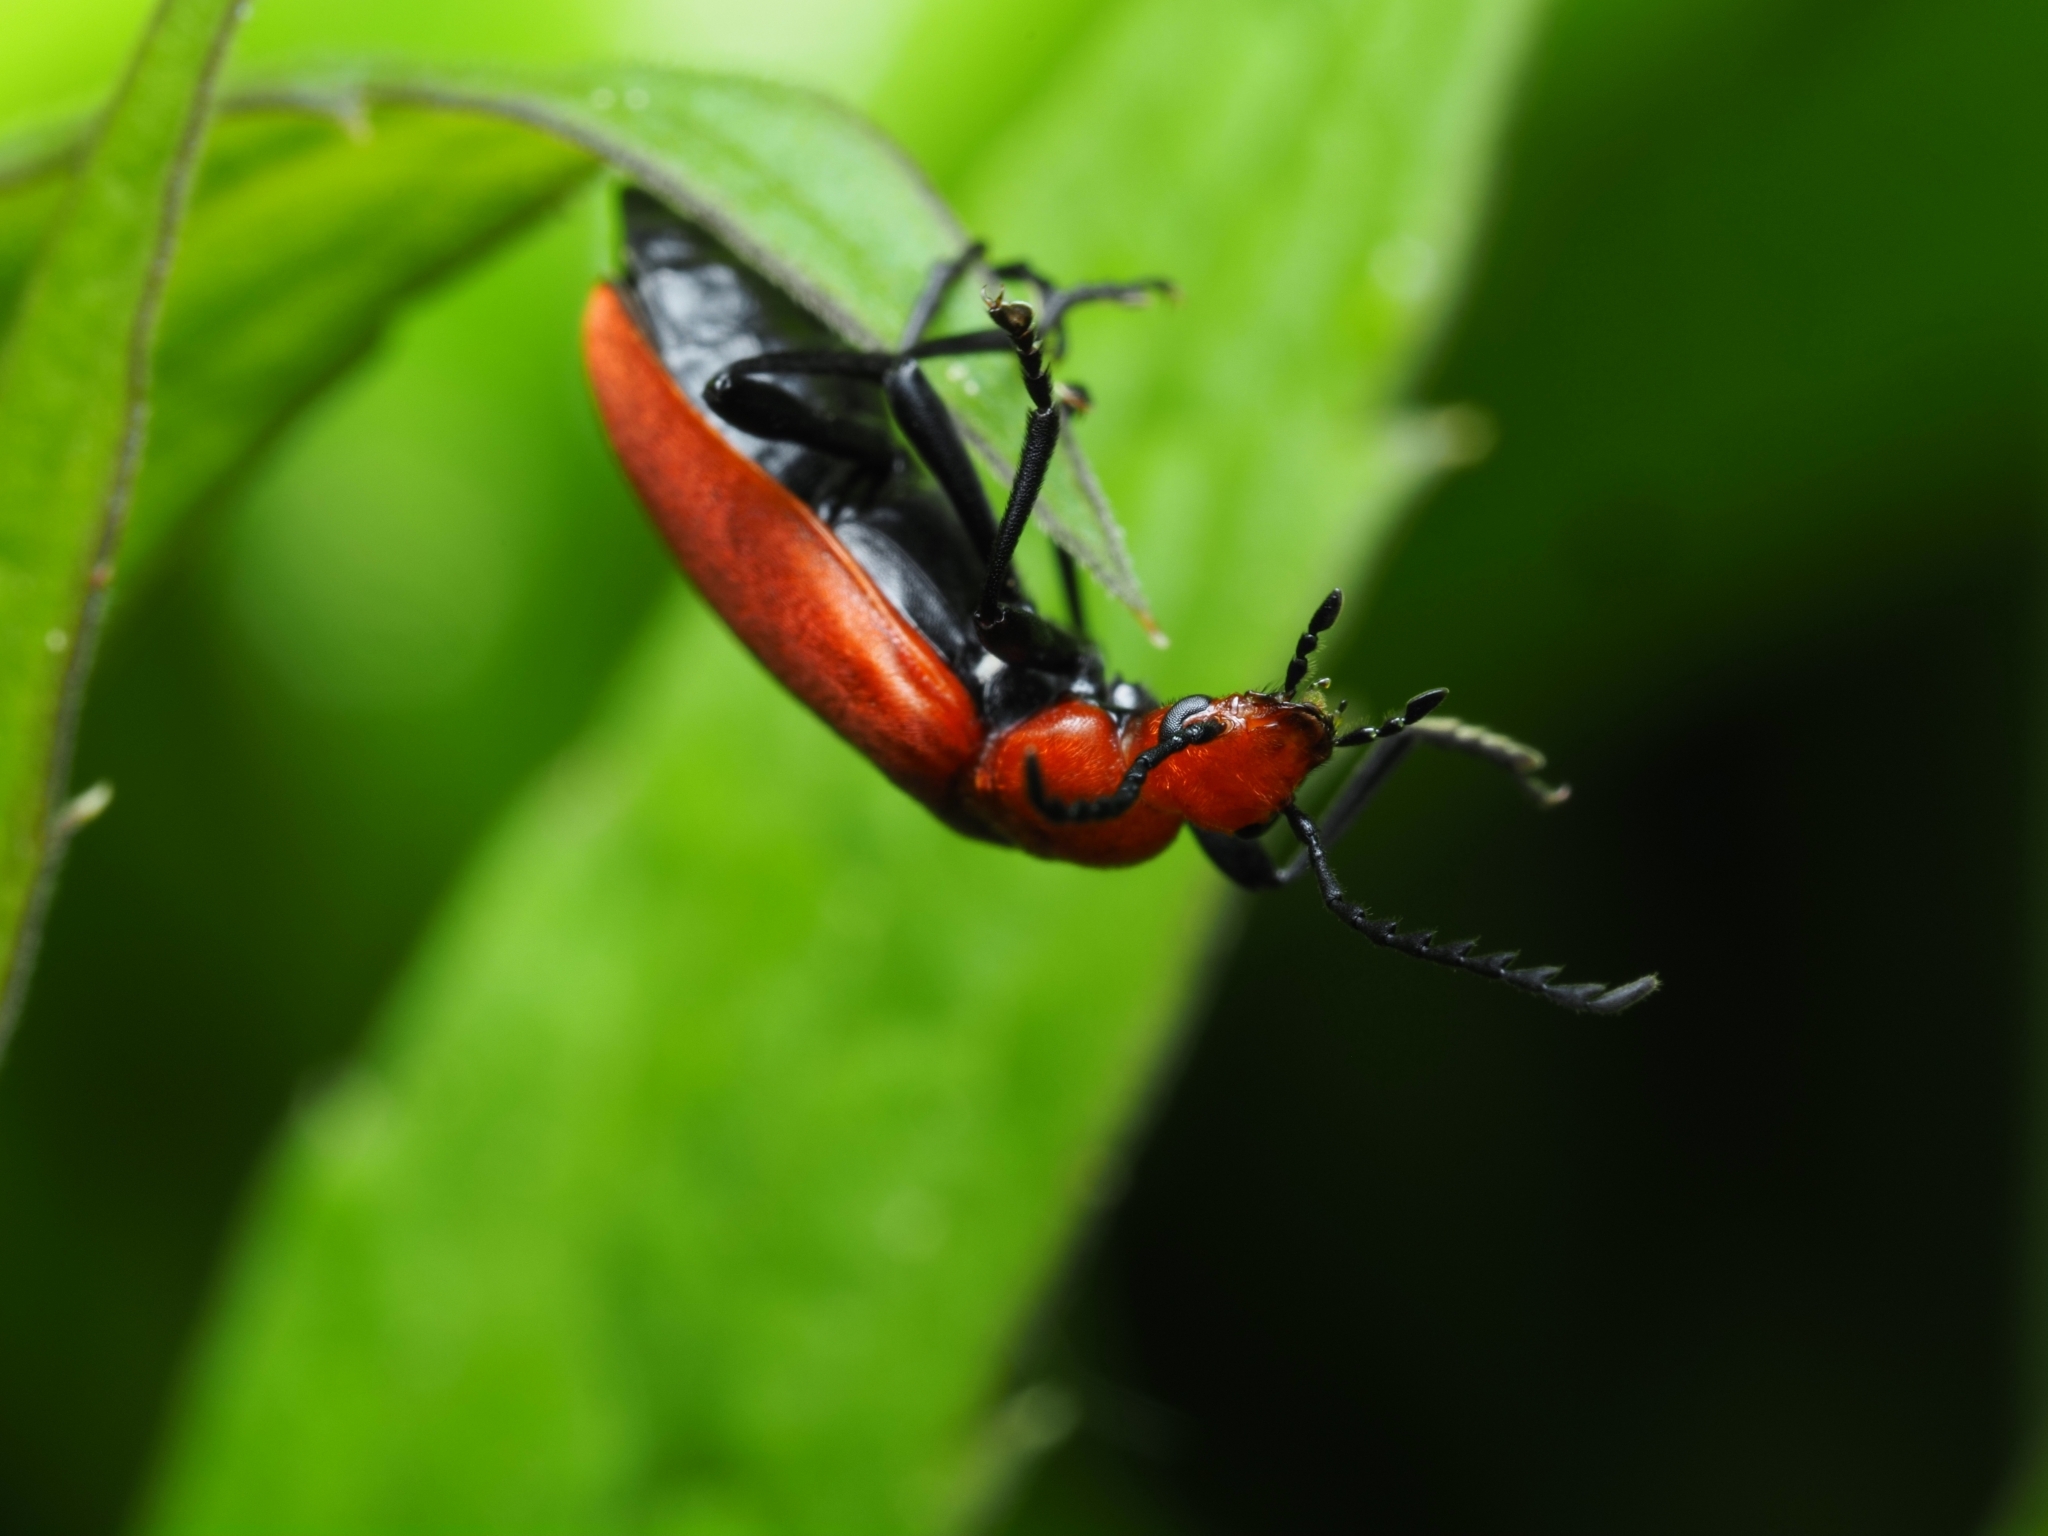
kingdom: Animalia
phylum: Arthropoda
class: Insecta
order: Coleoptera
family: Pyrochroidae
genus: Pyrochroa
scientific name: Pyrochroa serraticornis
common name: Red-headed cardinal beetle
